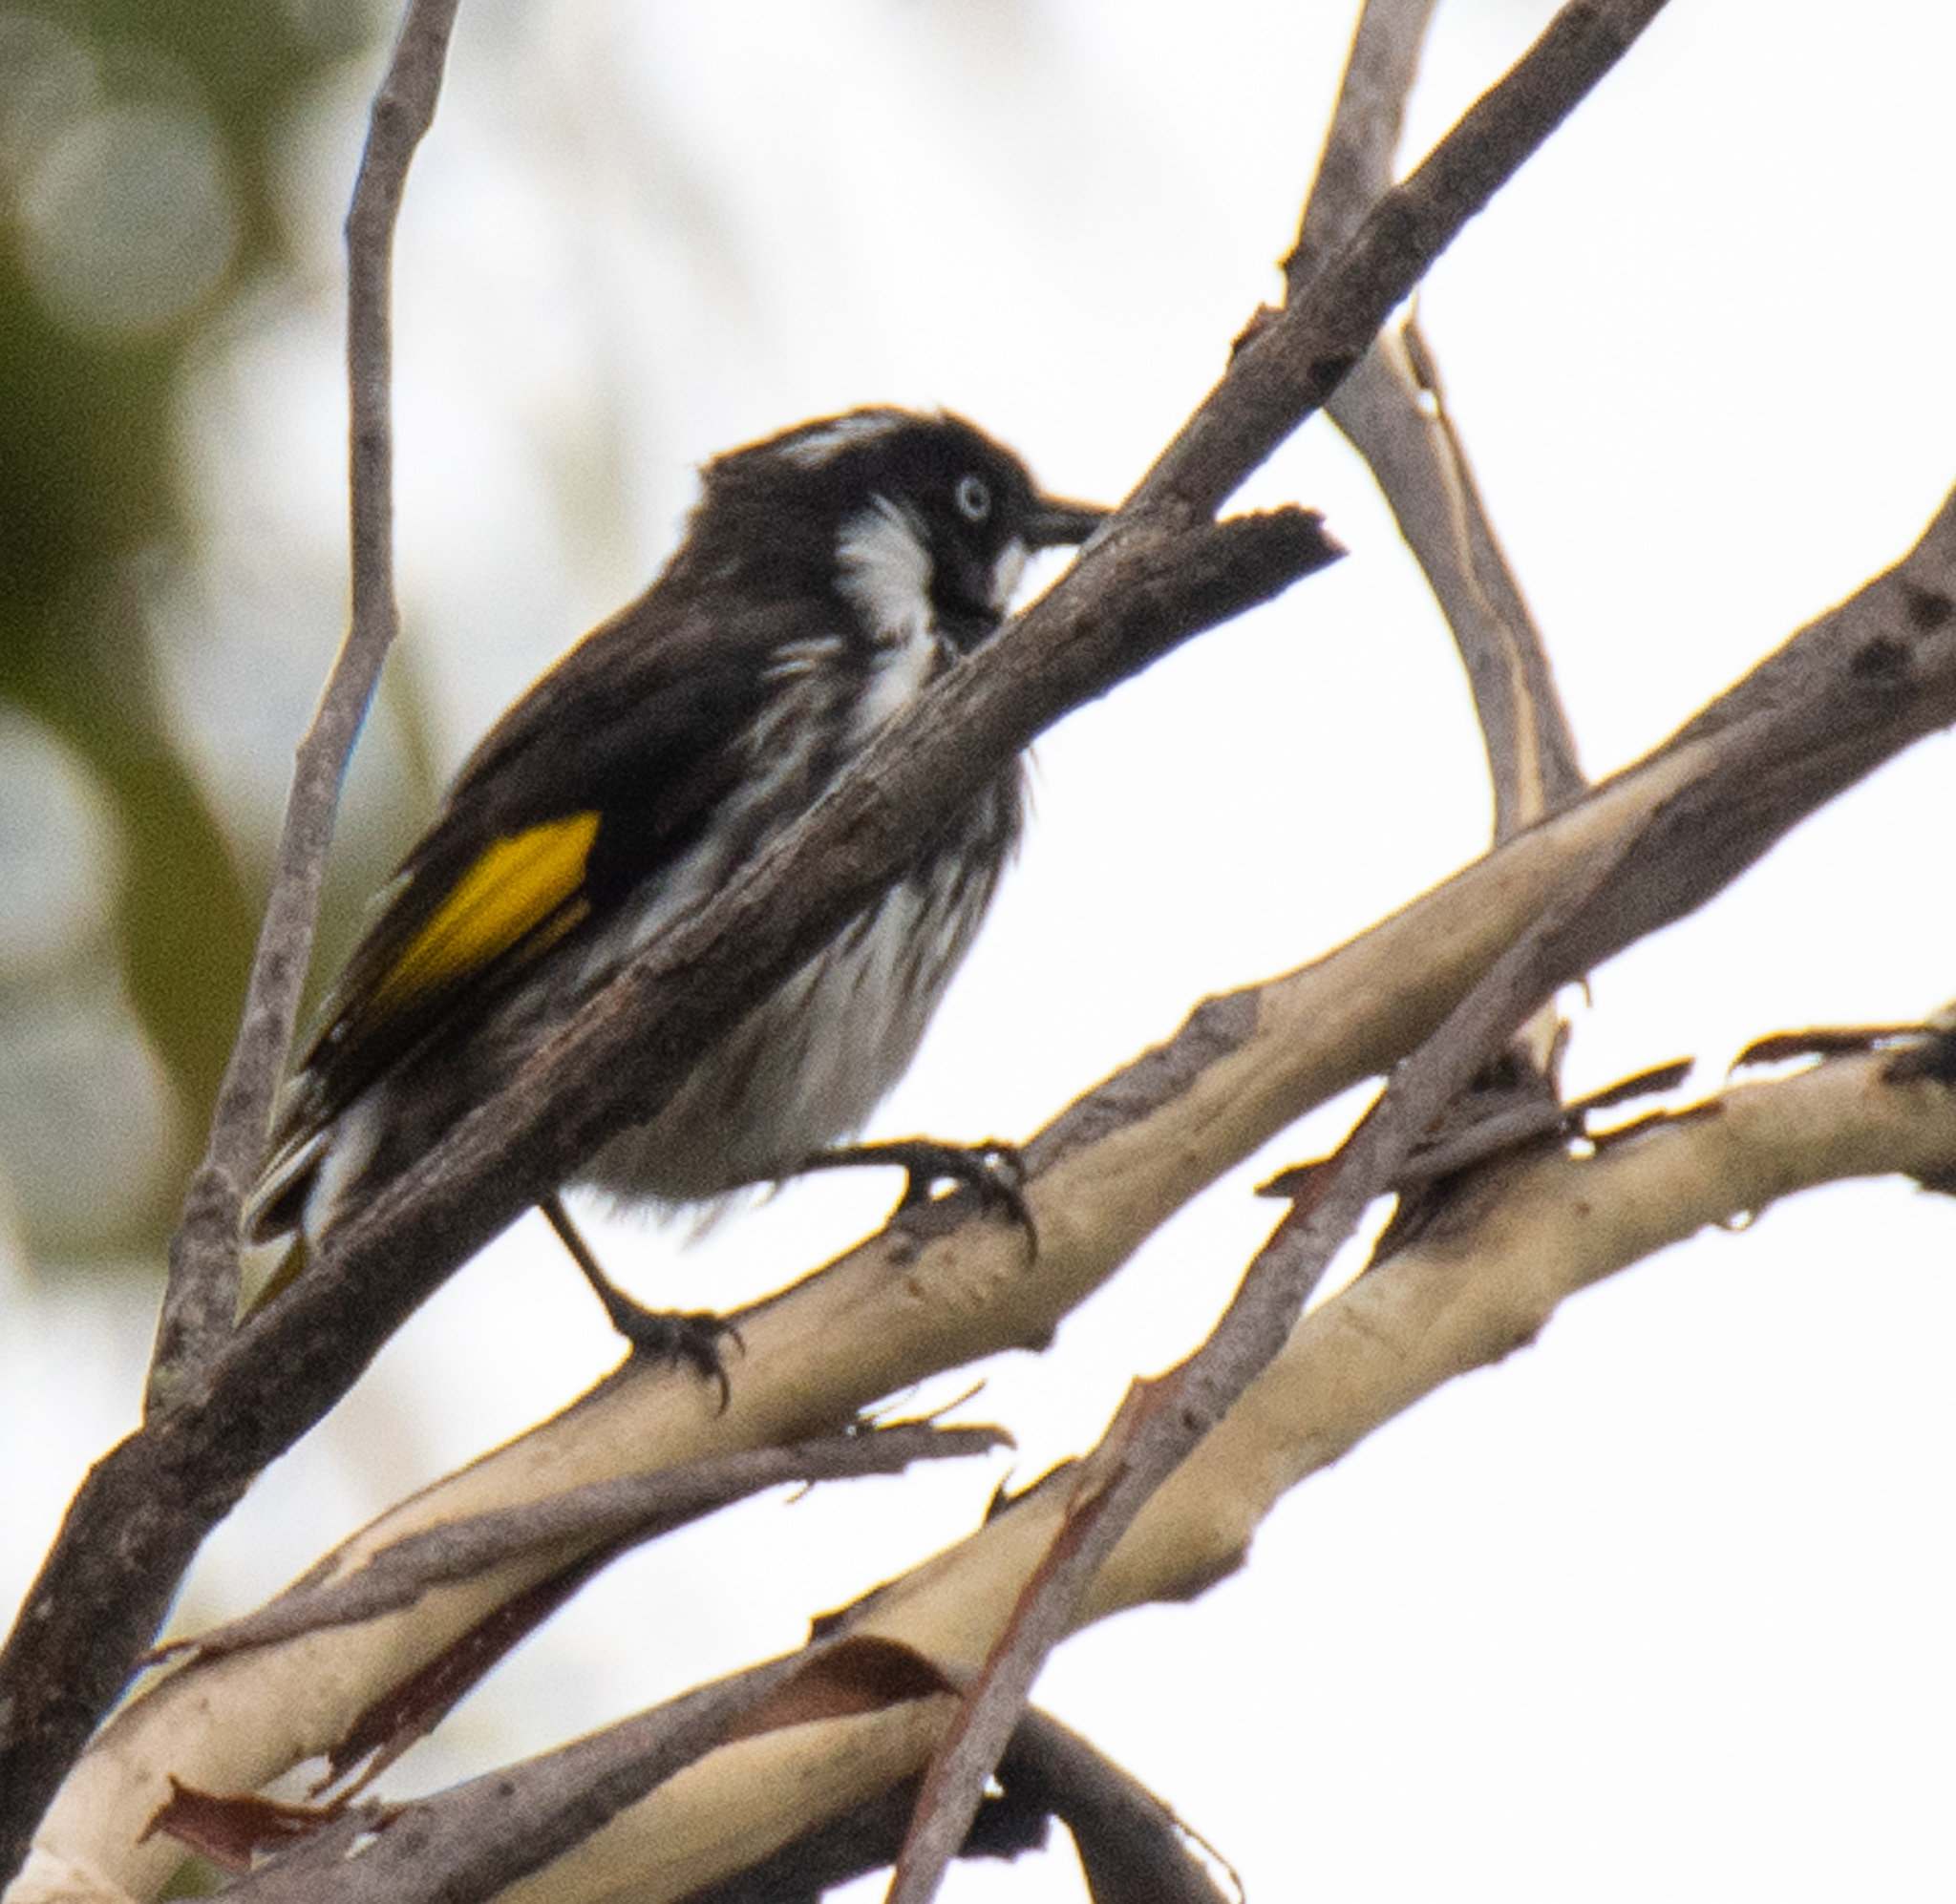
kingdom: Animalia
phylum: Chordata
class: Aves
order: Passeriformes
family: Meliphagidae
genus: Phylidonyris
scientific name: Phylidonyris novaehollandiae
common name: New holland honeyeater
